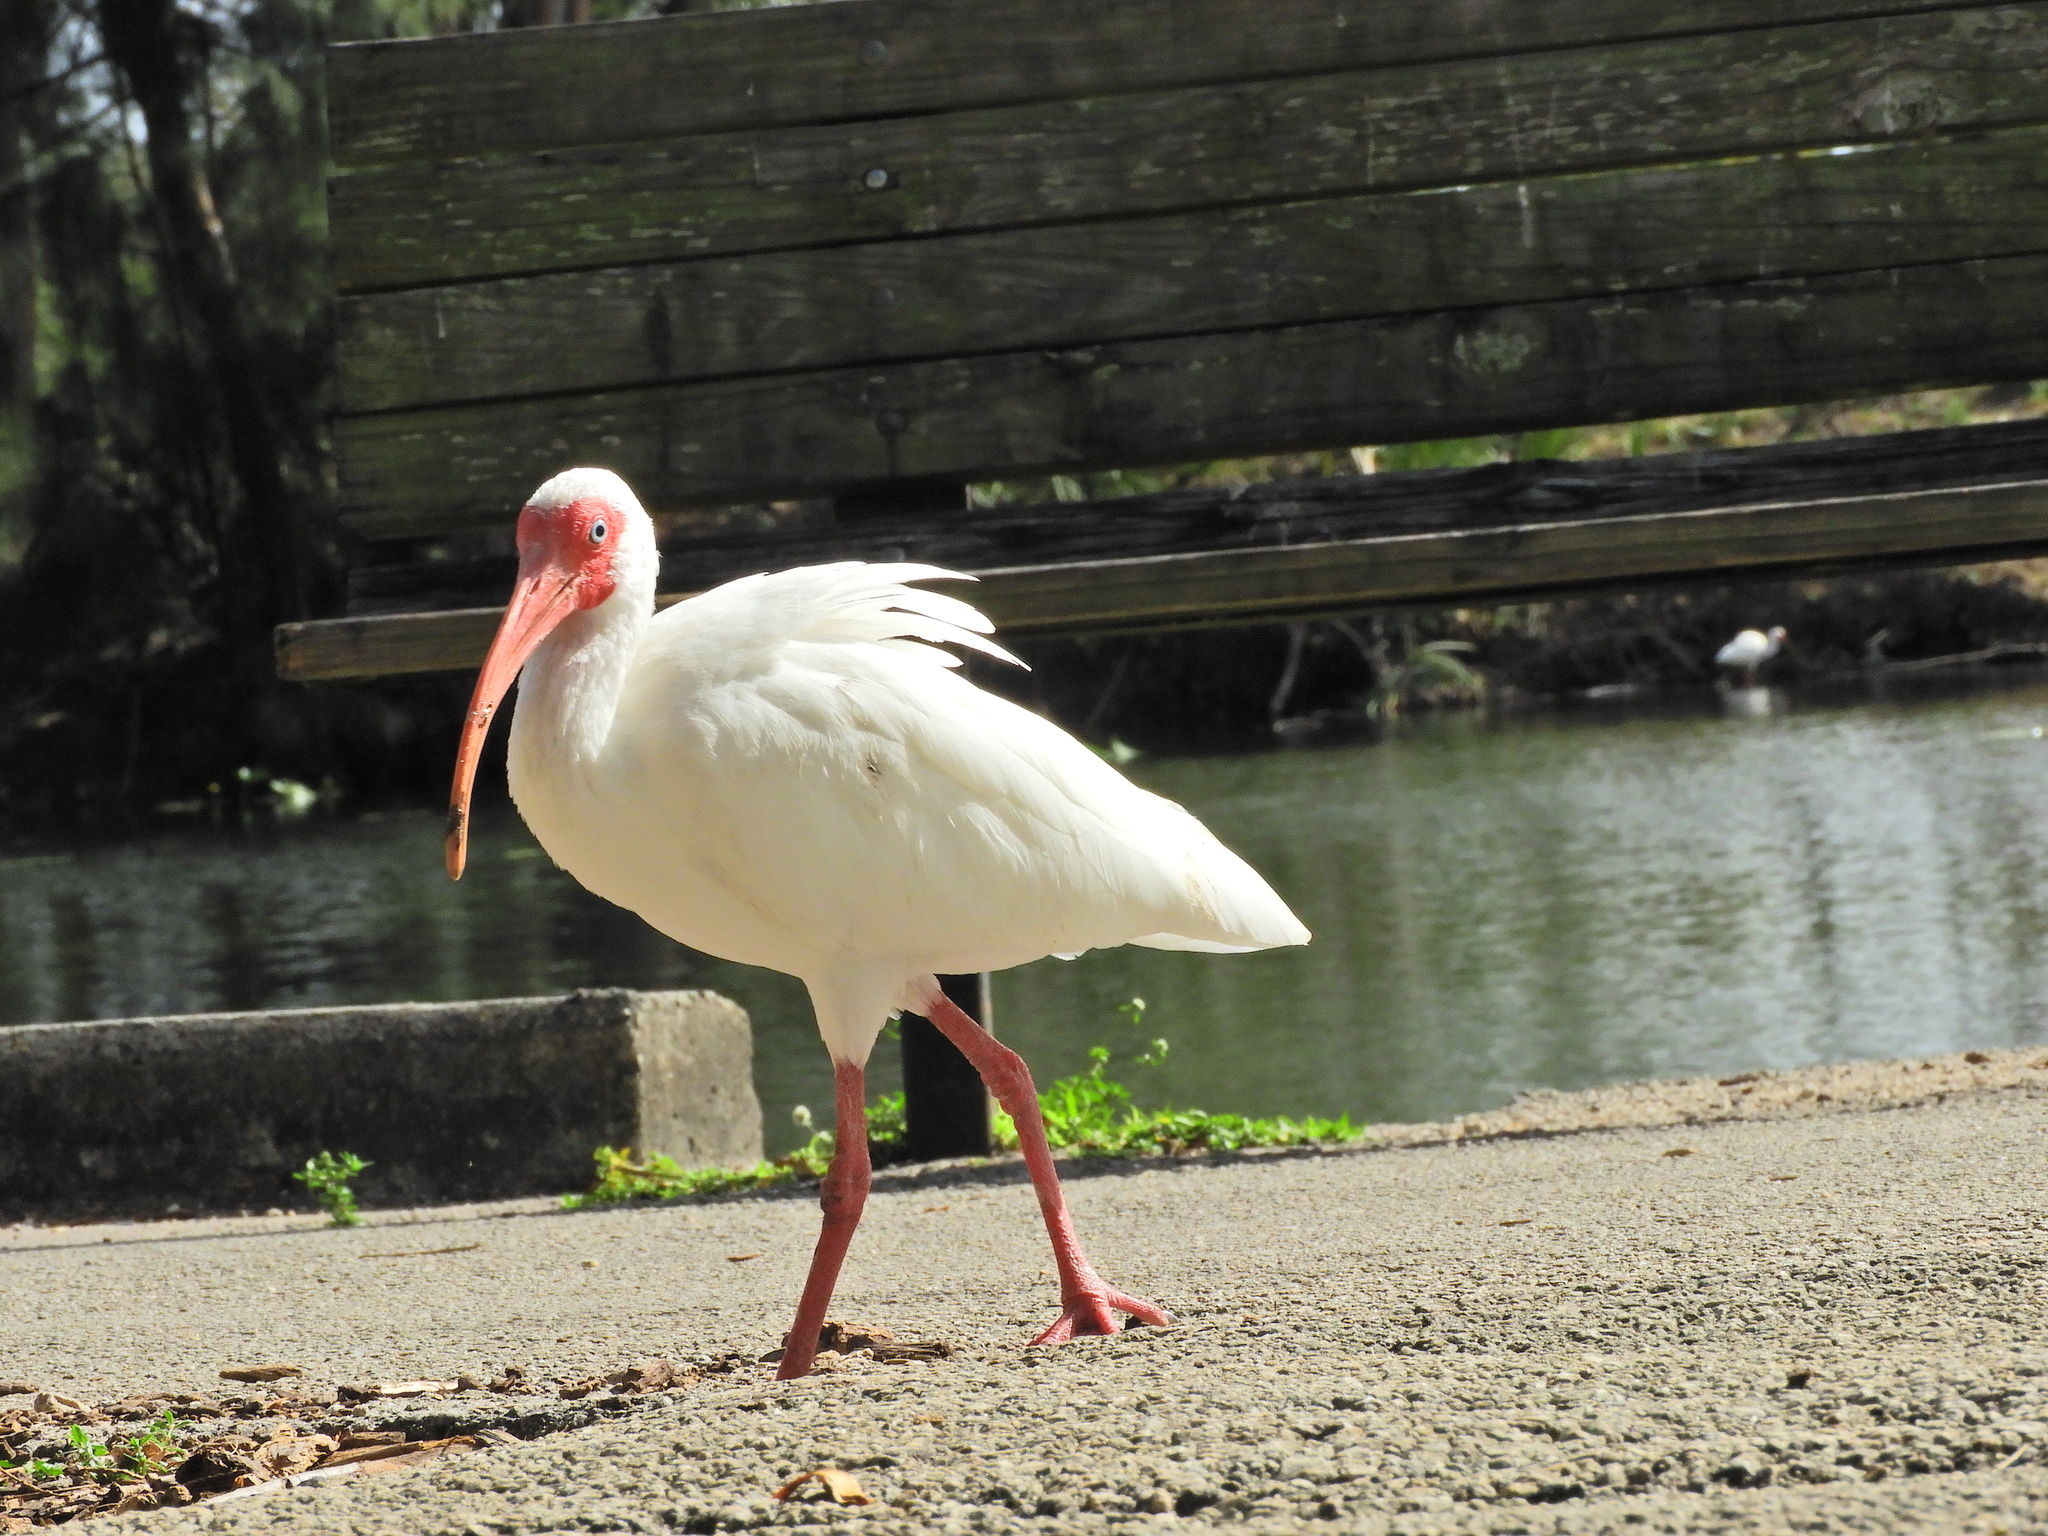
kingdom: Animalia
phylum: Chordata
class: Aves
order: Pelecaniformes
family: Threskiornithidae
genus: Eudocimus
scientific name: Eudocimus albus
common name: White ibis
